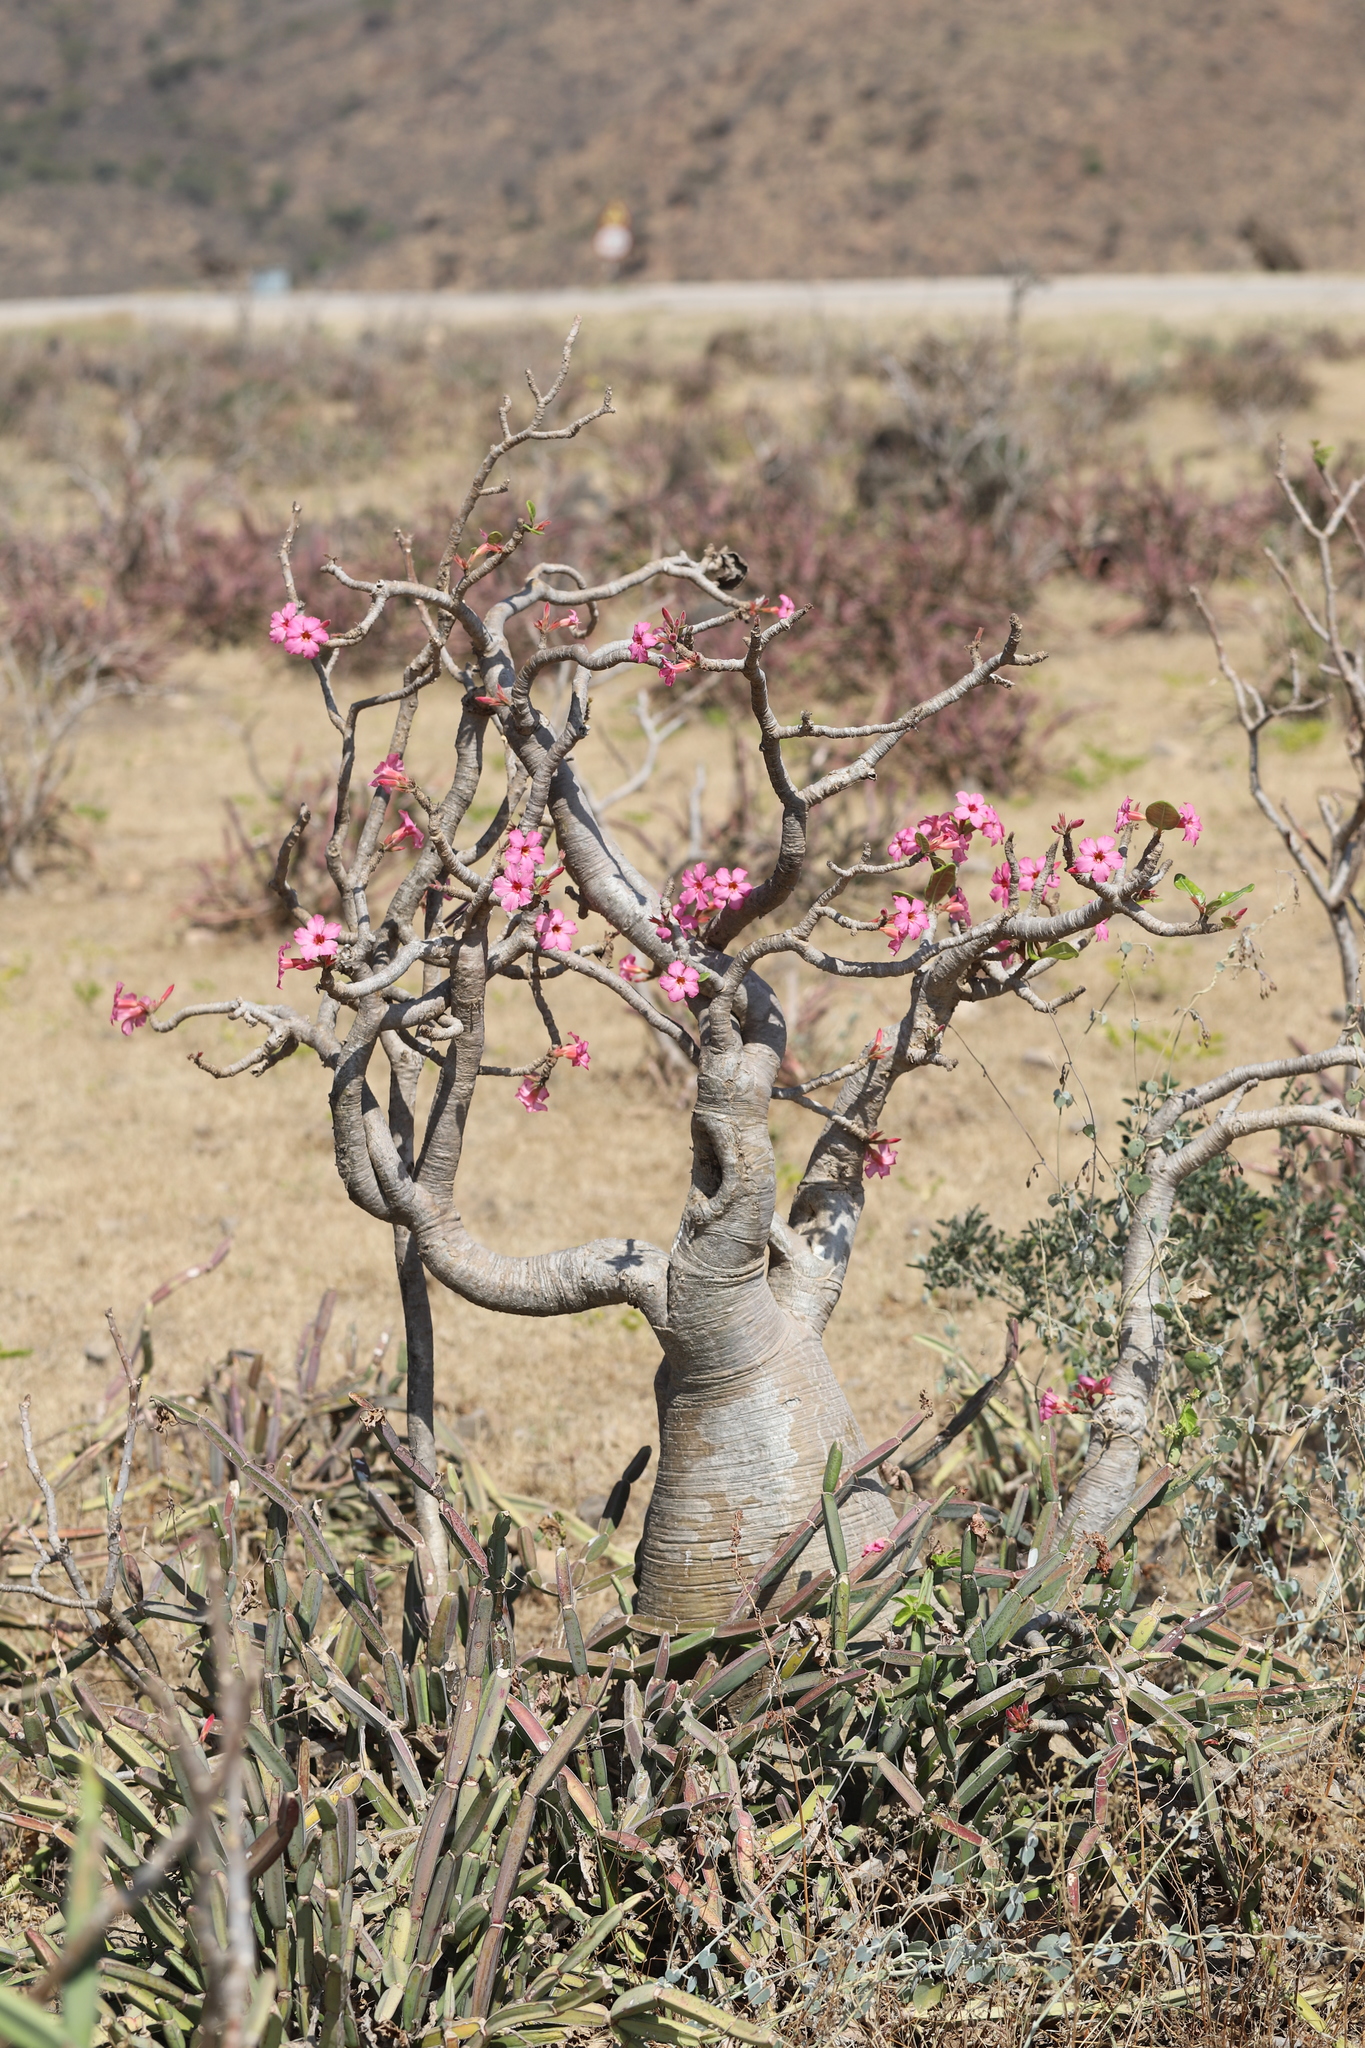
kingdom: Plantae
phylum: Tracheophyta
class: Magnoliopsida
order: Gentianales
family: Apocynaceae
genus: Adenium
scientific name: Adenium obesum
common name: Desert-rose
